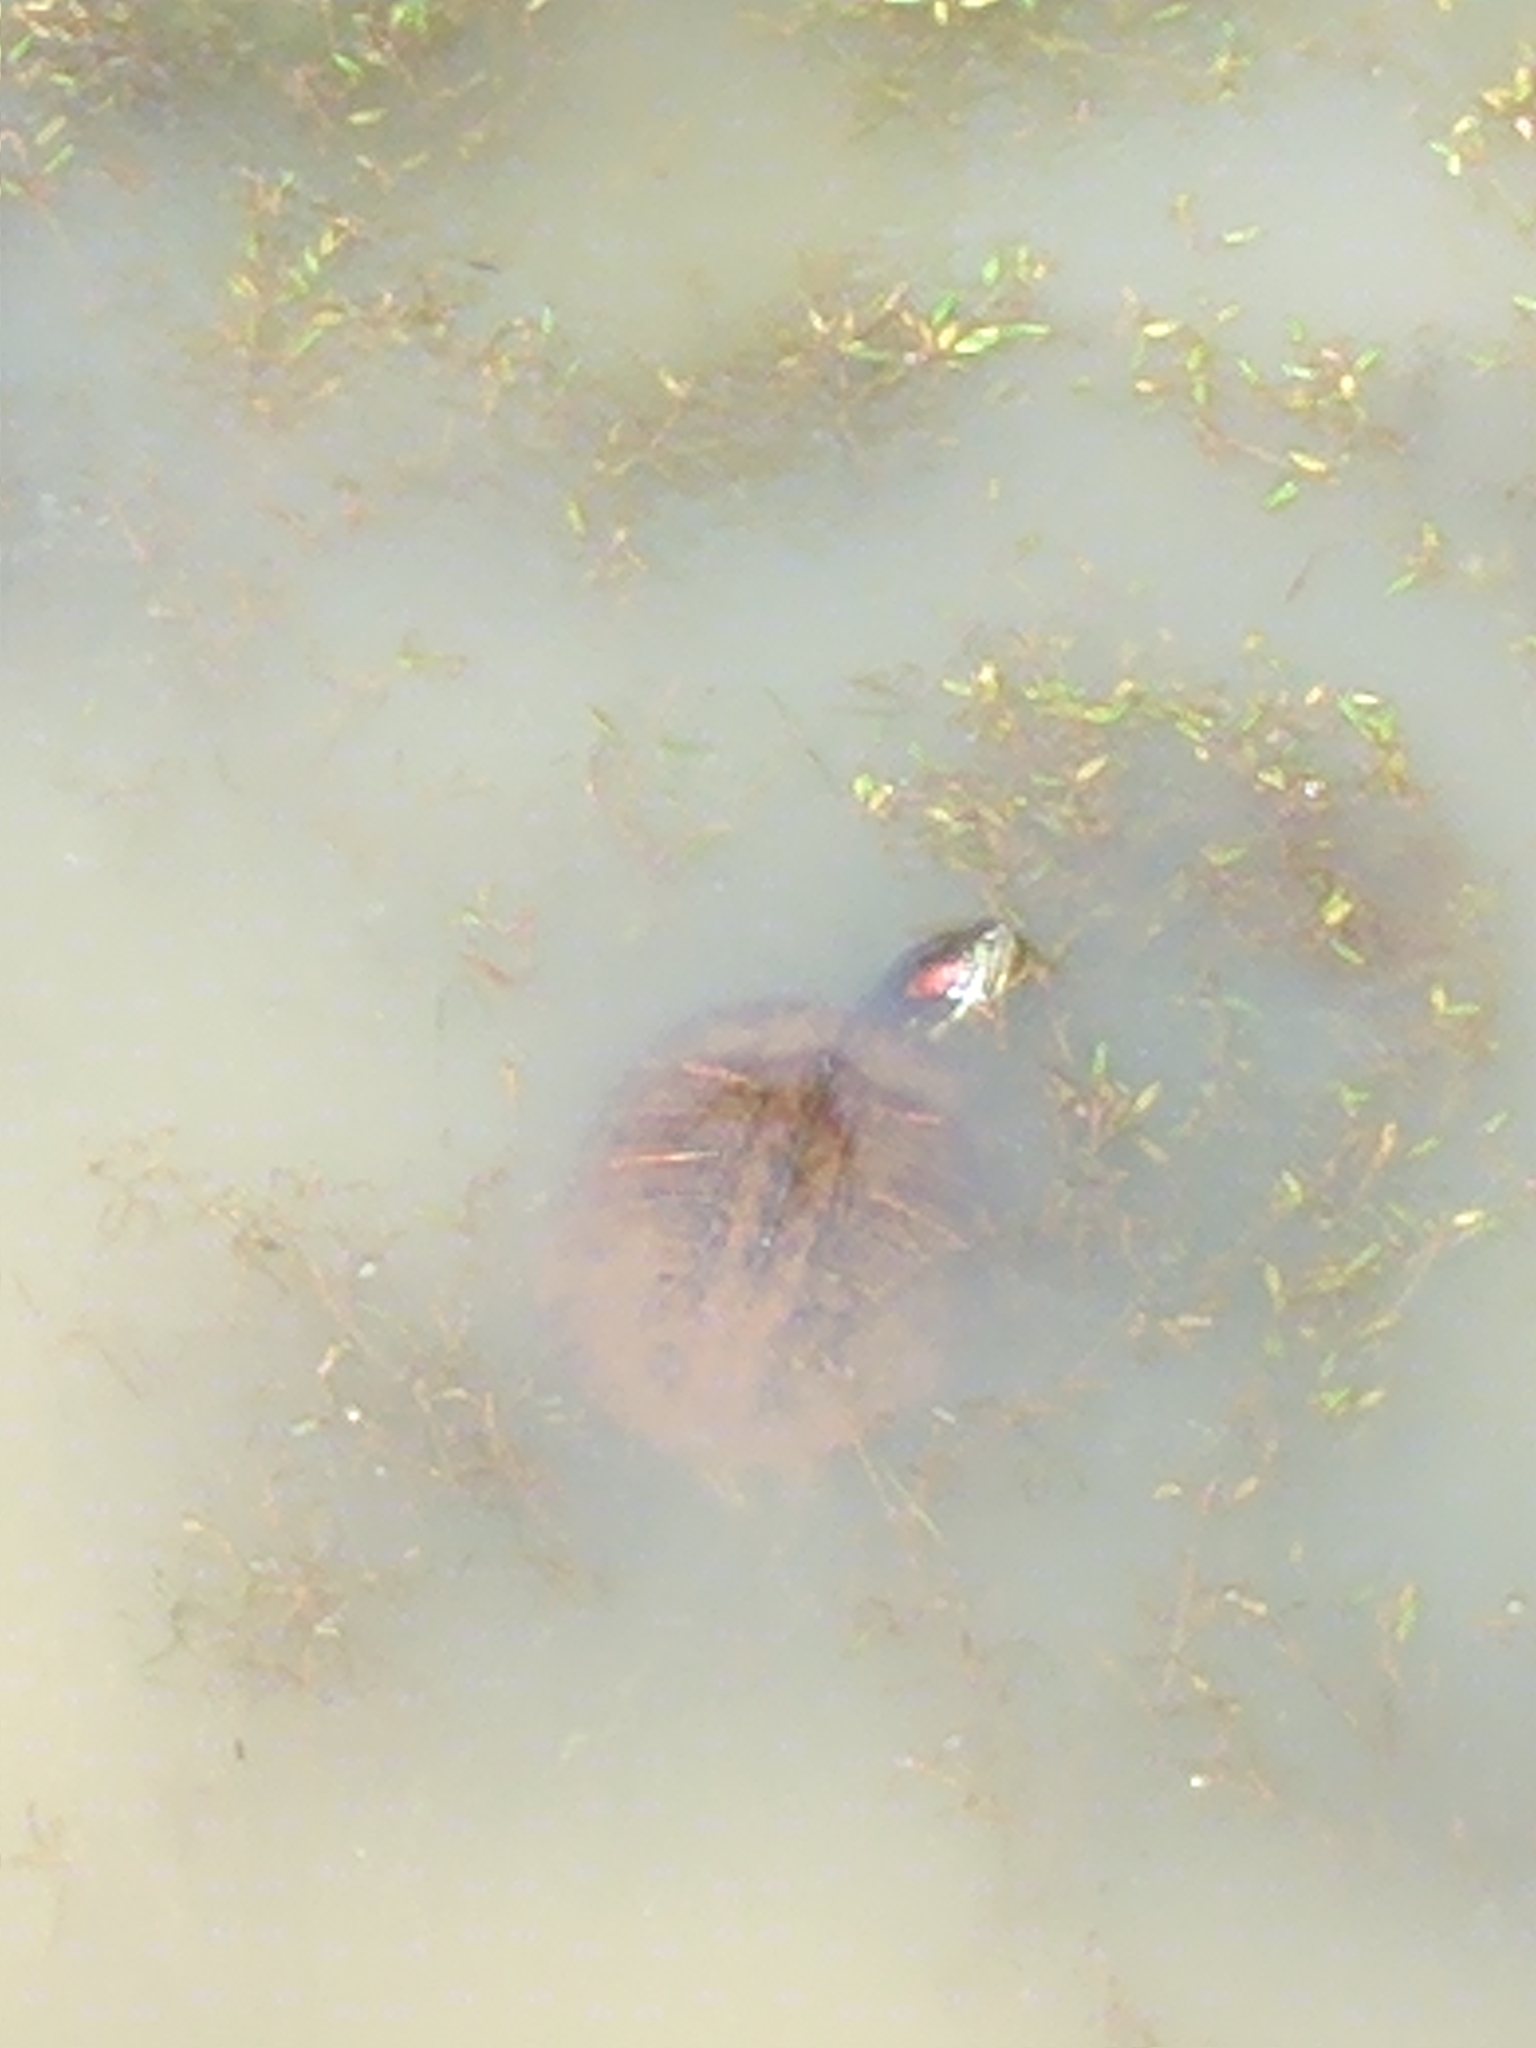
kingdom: Animalia
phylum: Chordata
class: Testudines
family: Emydidae
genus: Trachemys
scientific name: Trachemys scripta
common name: Slider
